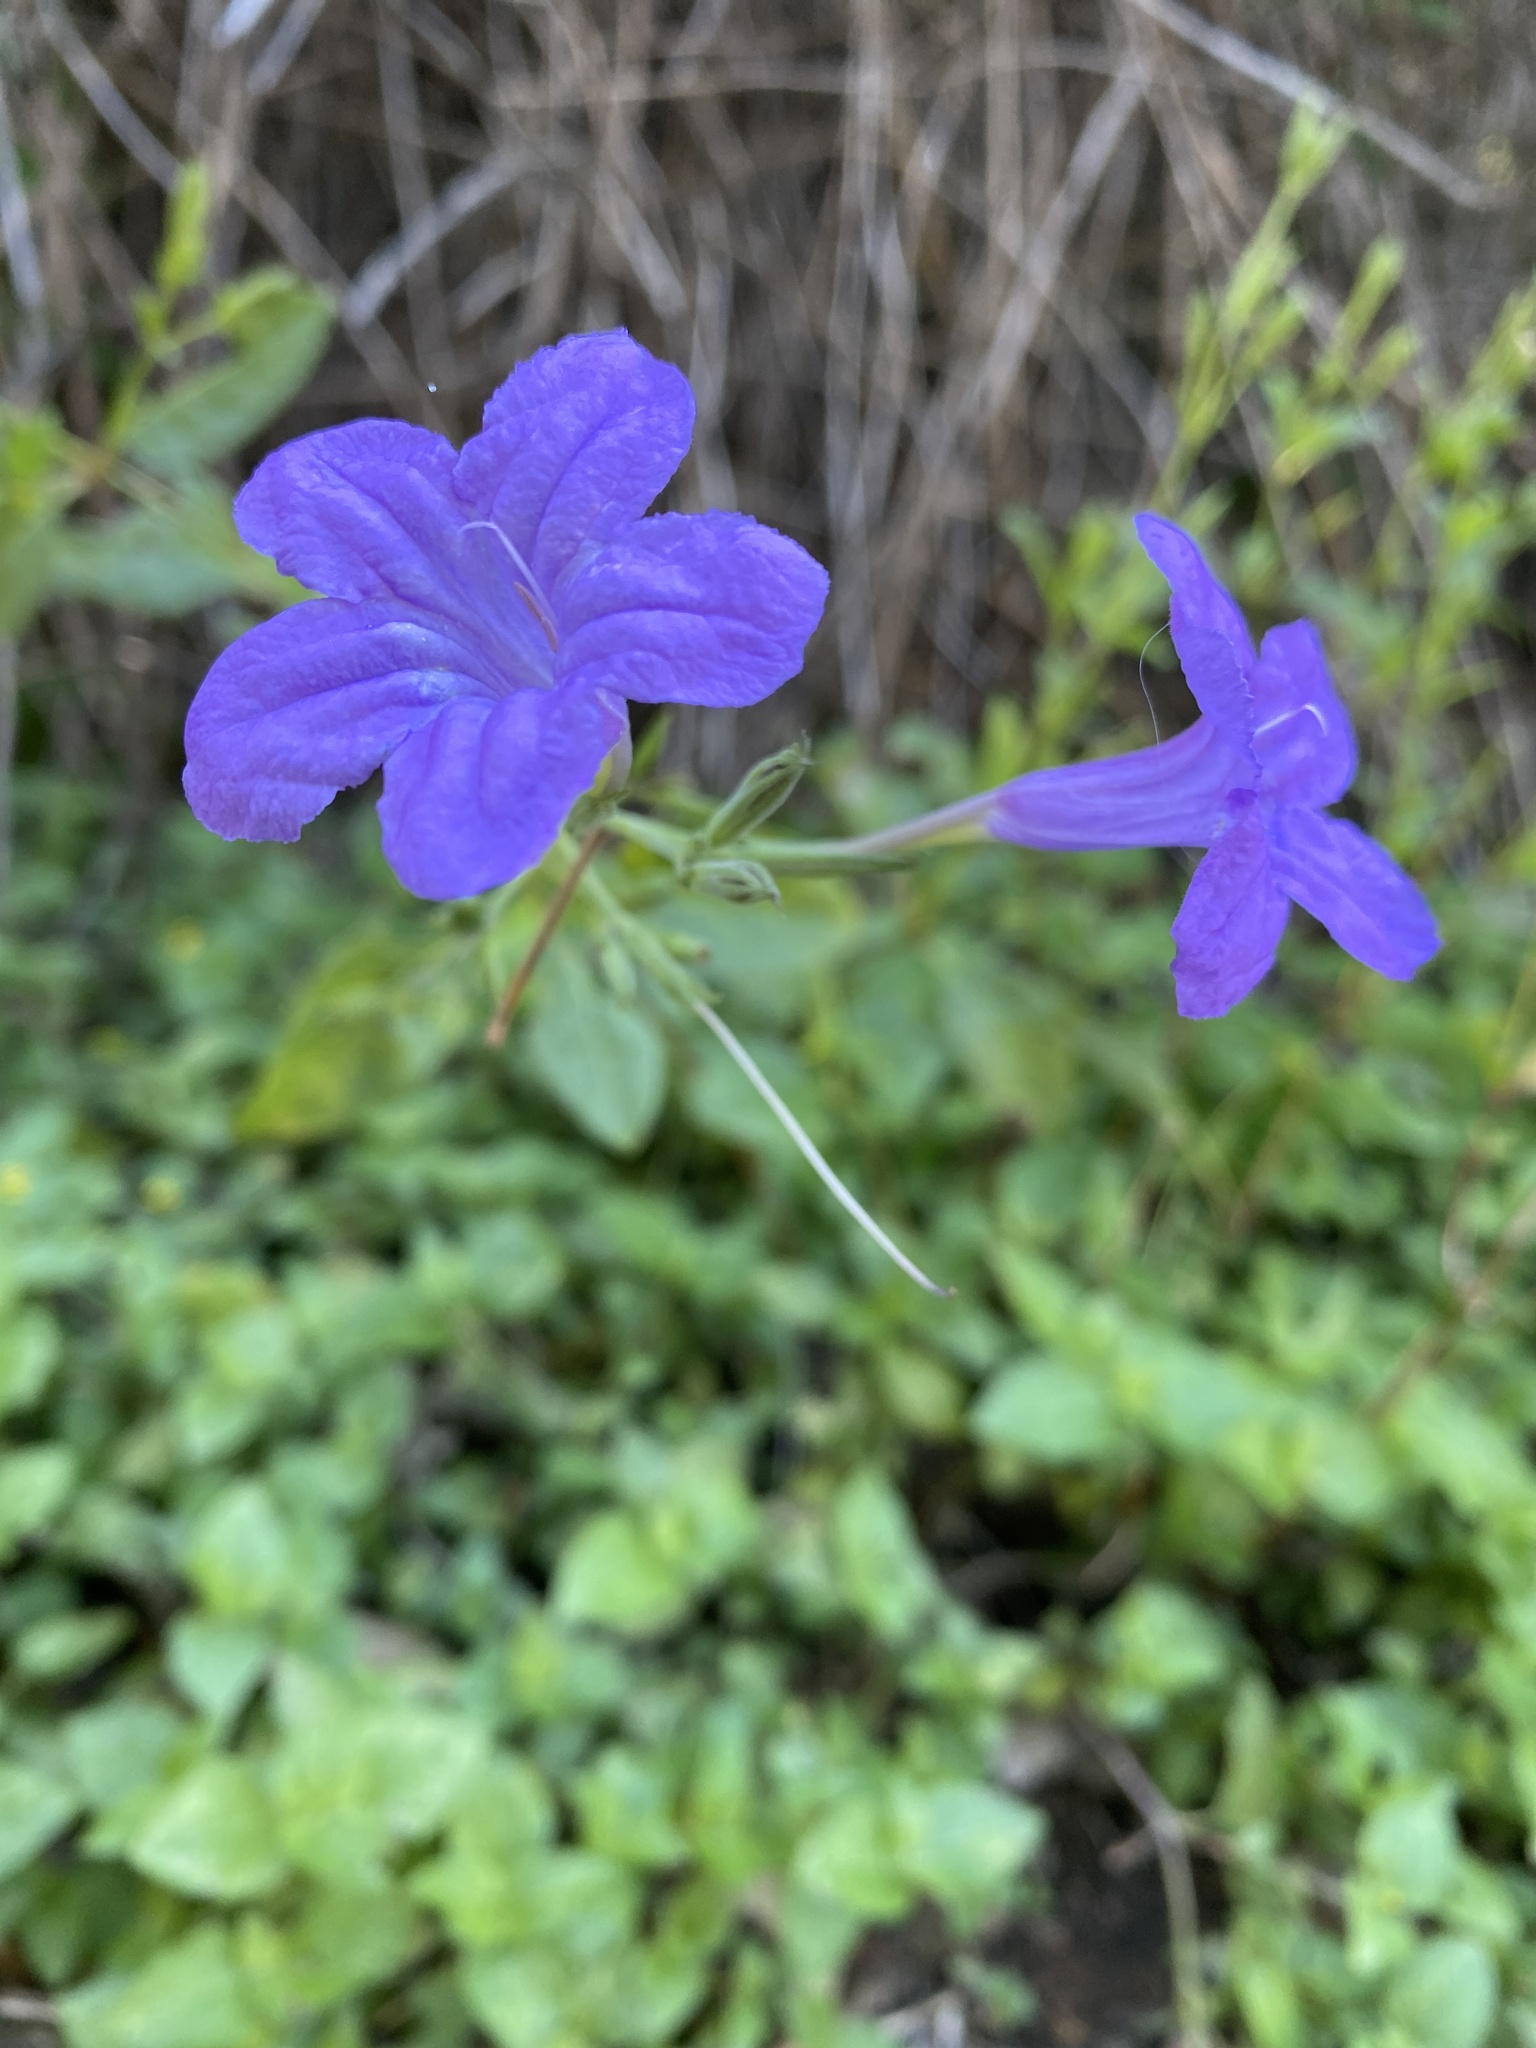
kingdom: Plantae
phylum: Tracheophyta
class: Magnoliopsida
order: Lamiales
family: Acanthaceae
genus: Ruellia
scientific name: Ruellia ciliatiflora
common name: Hairyflower wild petunia
